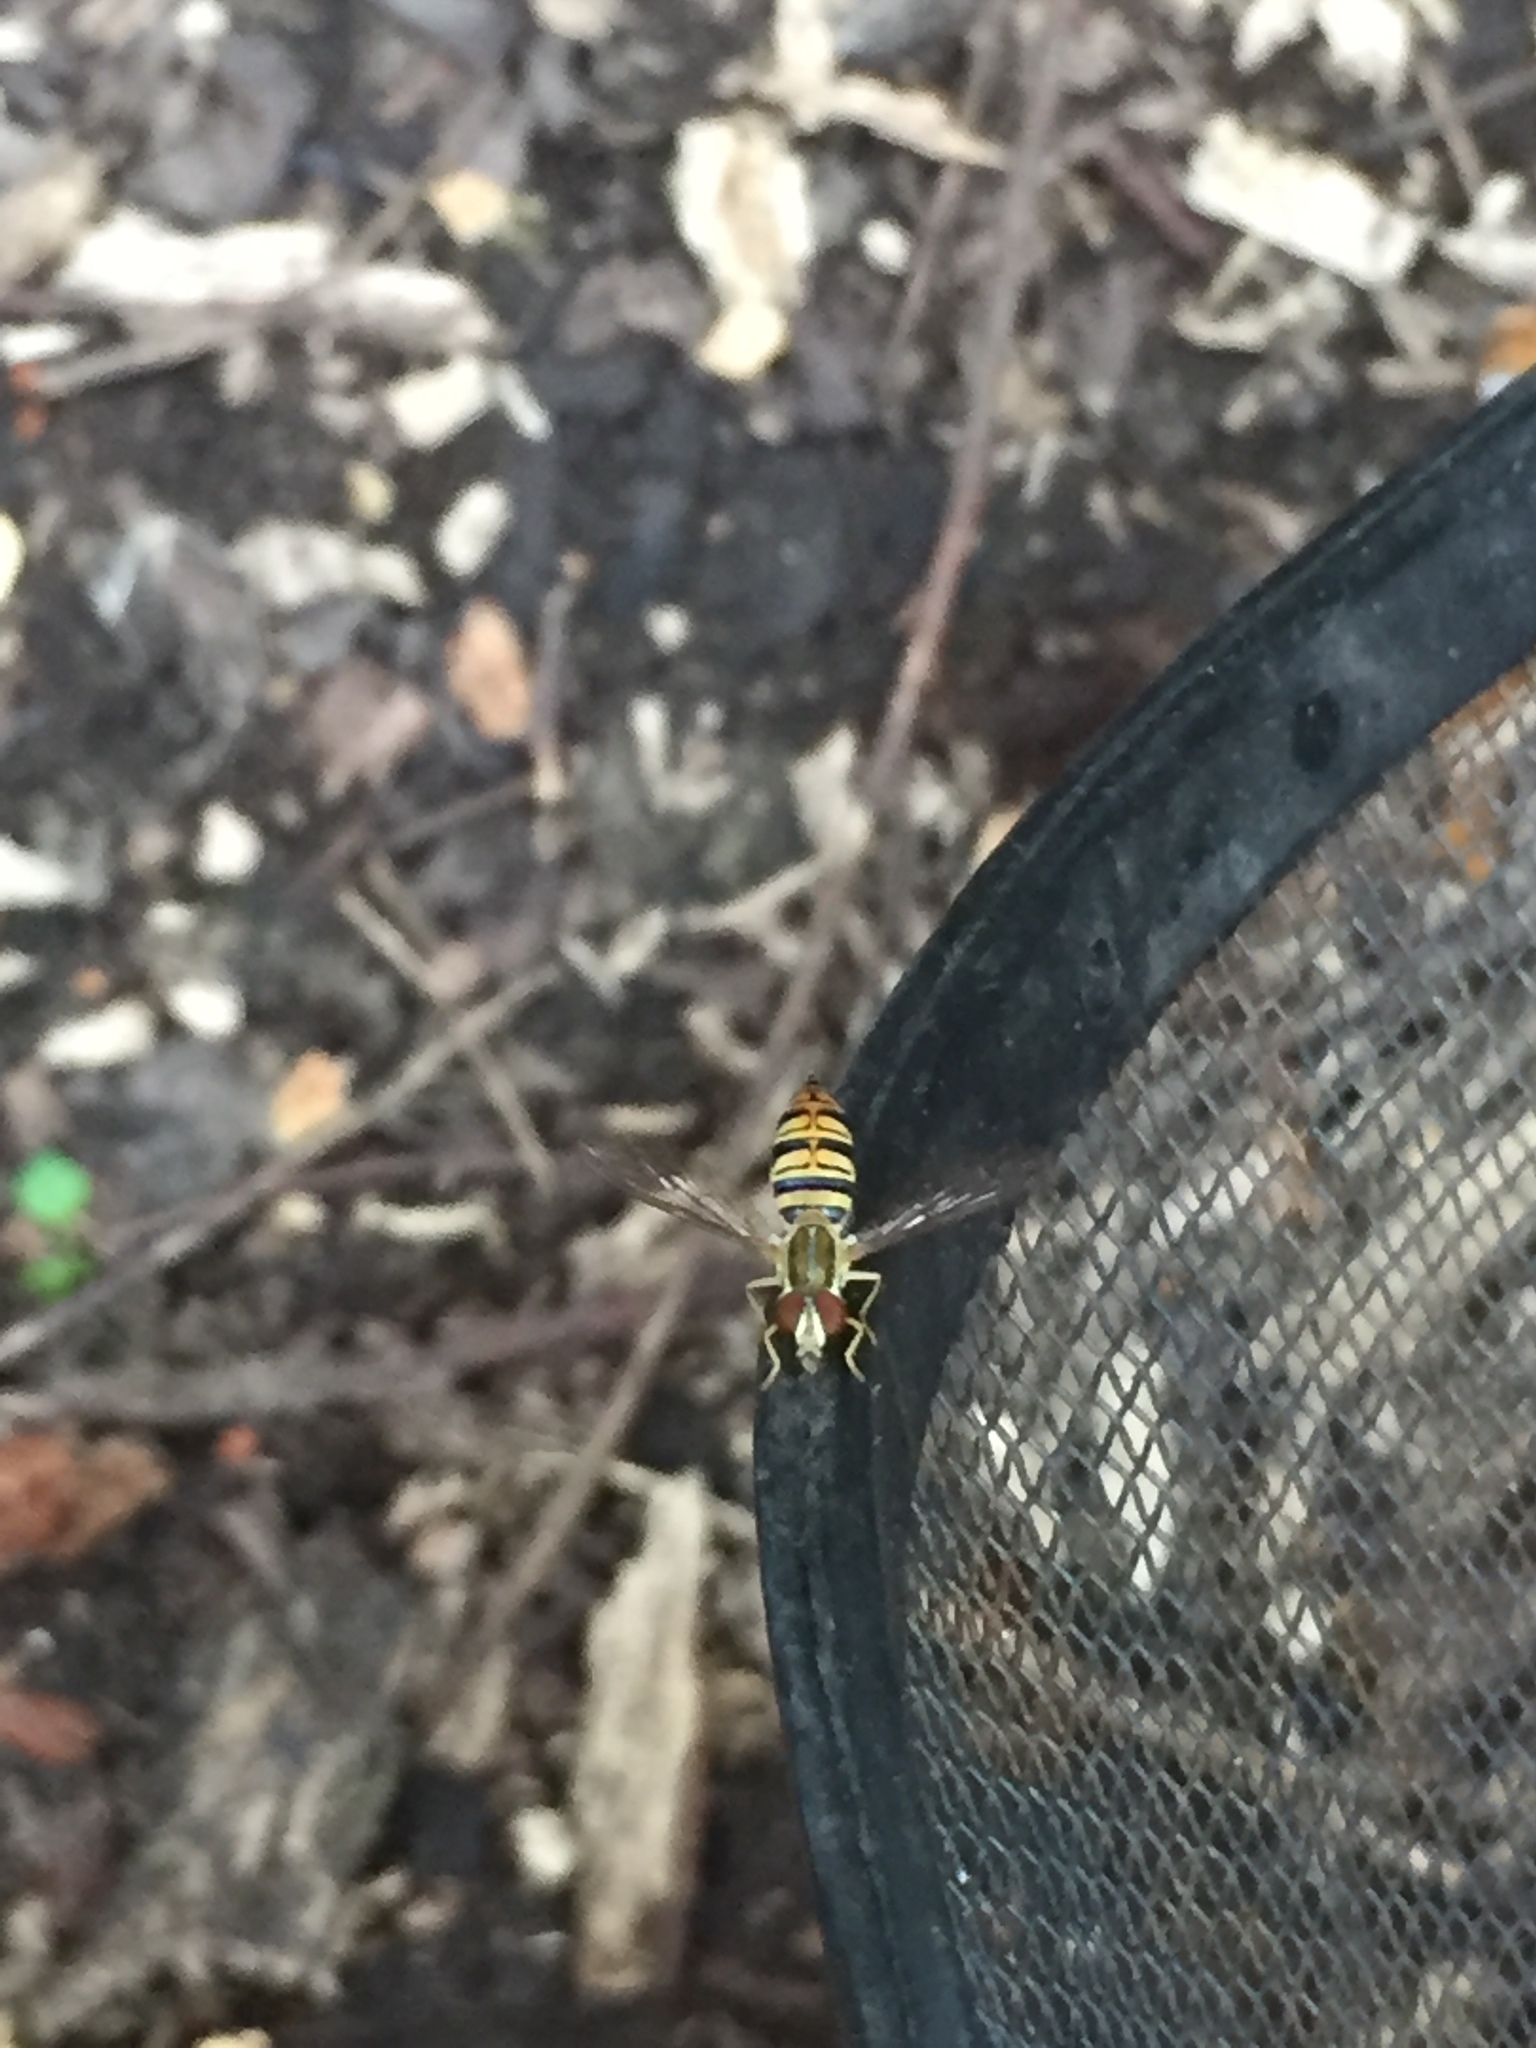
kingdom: Animalia
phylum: Arthropoda
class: Insecta
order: Diptera
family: Syrphidae
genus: Toxomerus
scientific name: Toxomerus politus
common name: Maize calligrapher
